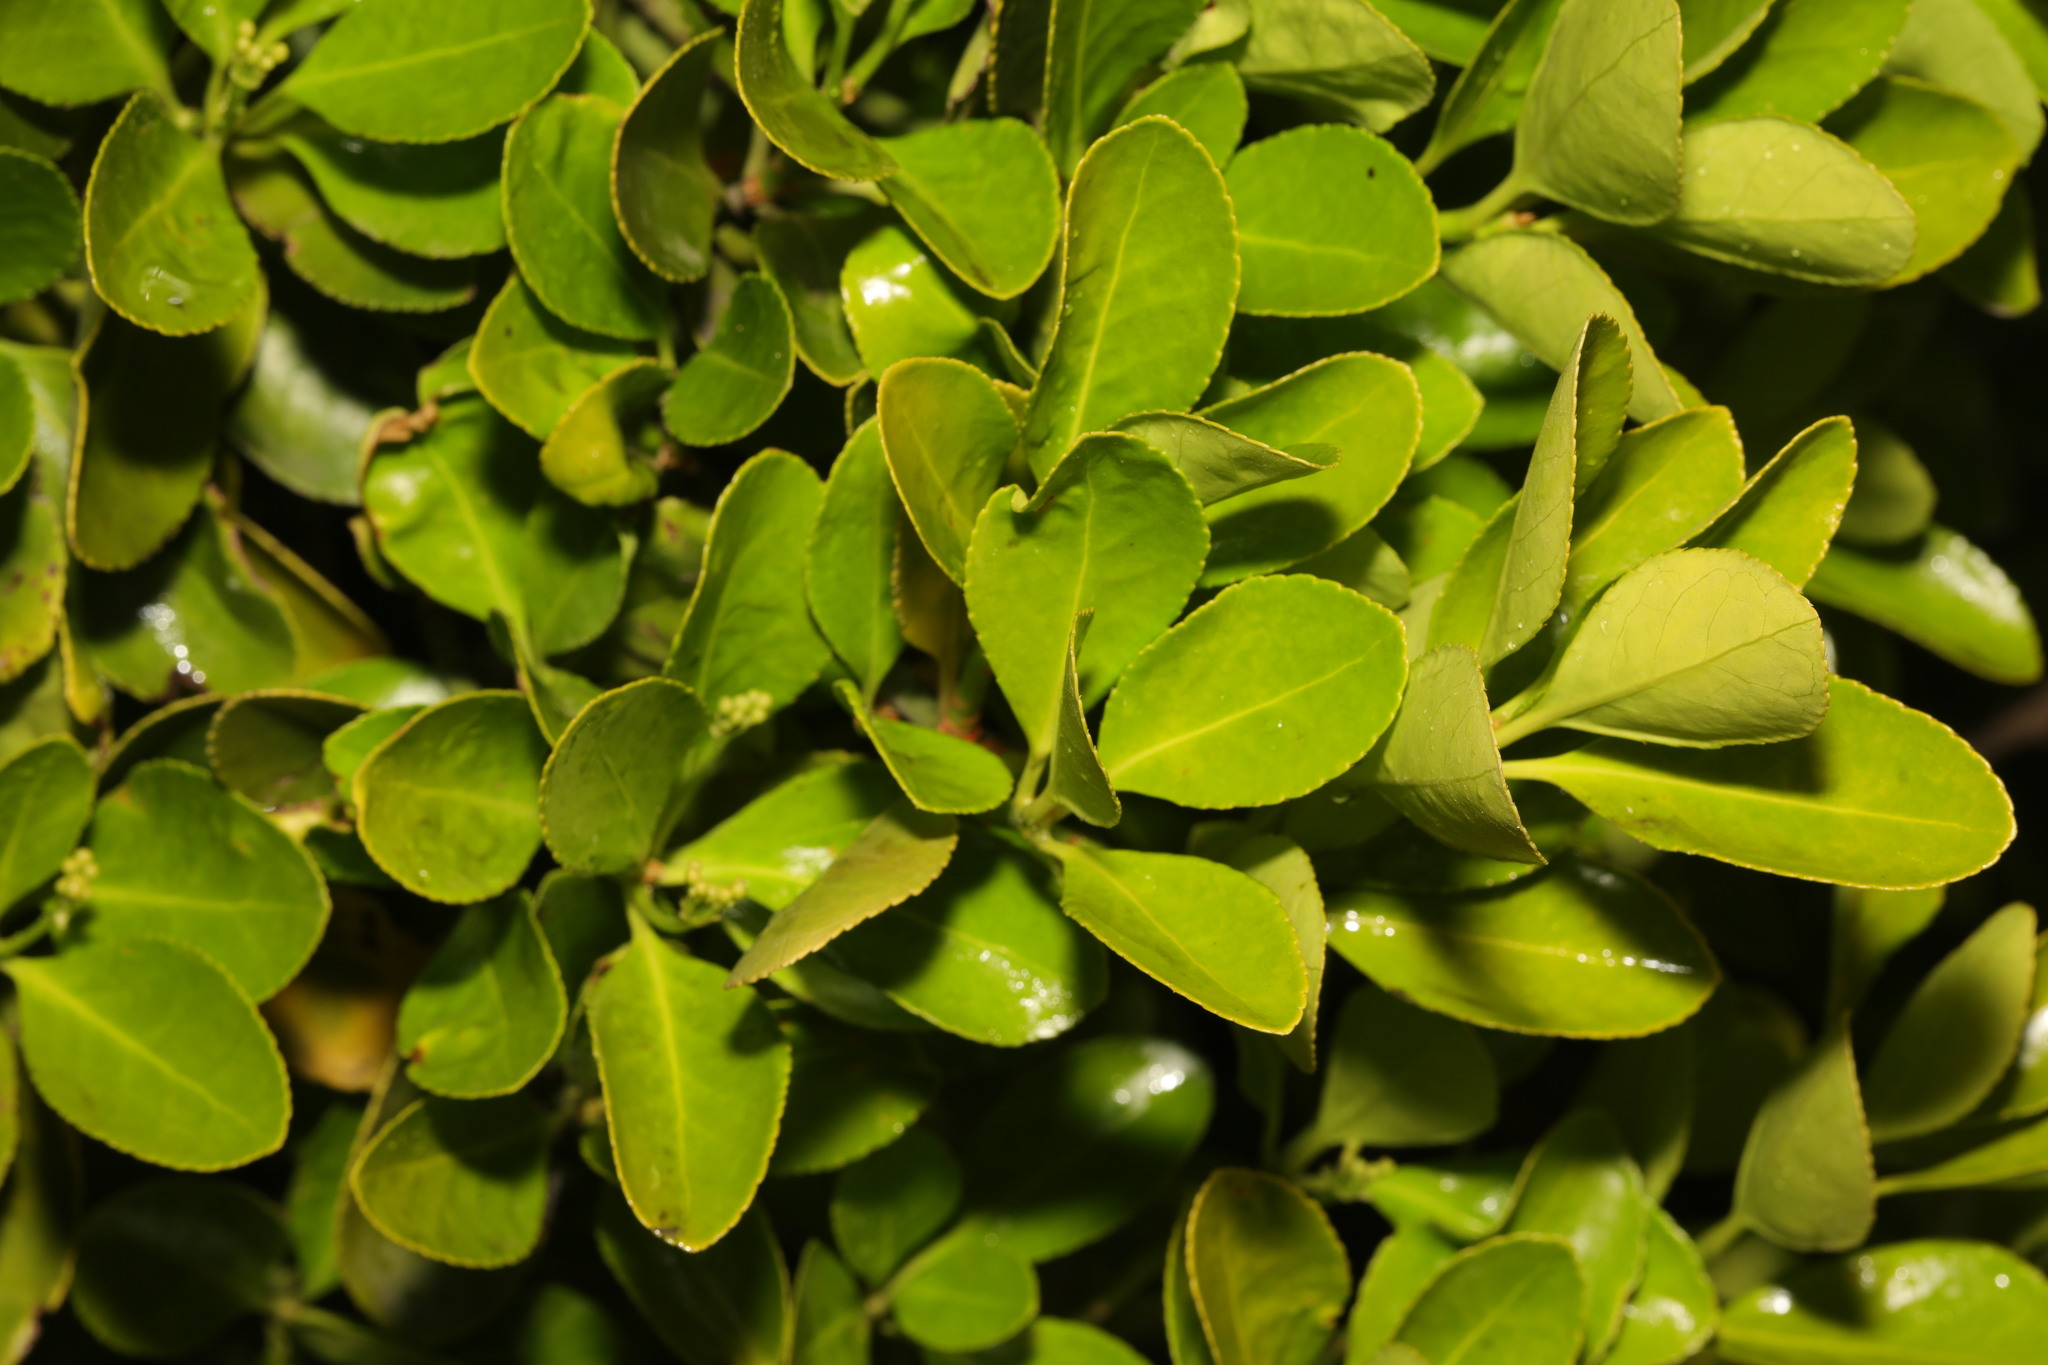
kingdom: Plantae
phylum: Tracheophyta
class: Magnoliopsida
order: Celastrales
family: Celastraceae
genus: Euonymus
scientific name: Euonymus japonicus
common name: Japanese spindletree
